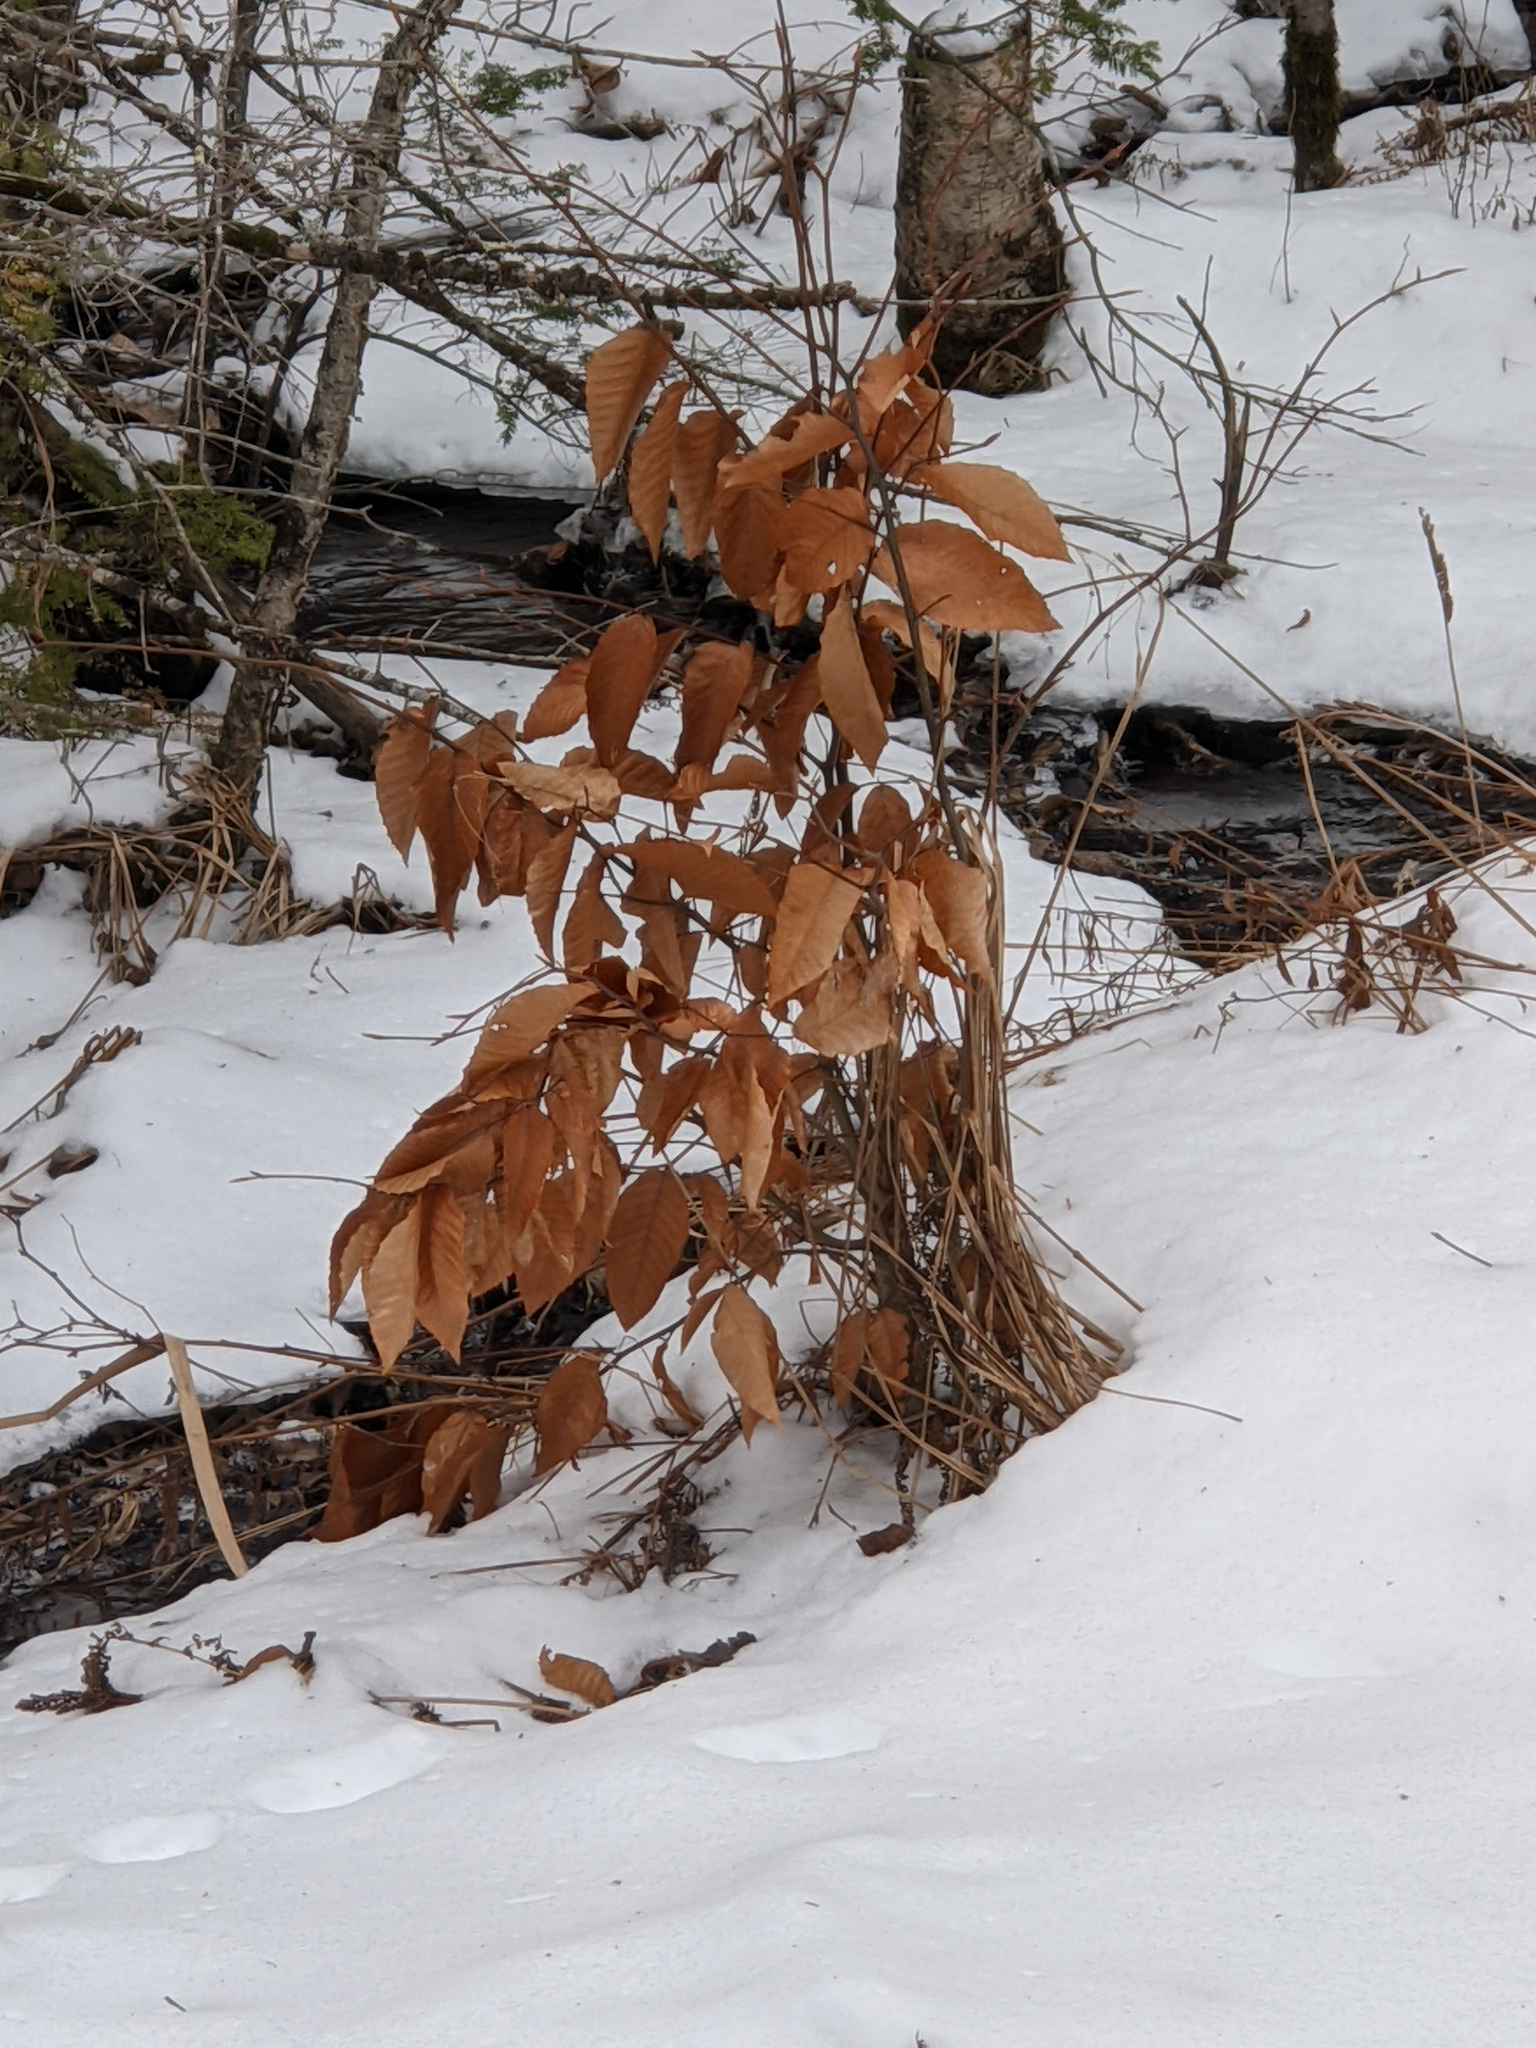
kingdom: Plantae
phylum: Tracheophyta
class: Magnoliopsida
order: Fagales
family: Fagaceae
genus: Fagus
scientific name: Fagus grandifolia
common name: American beech
